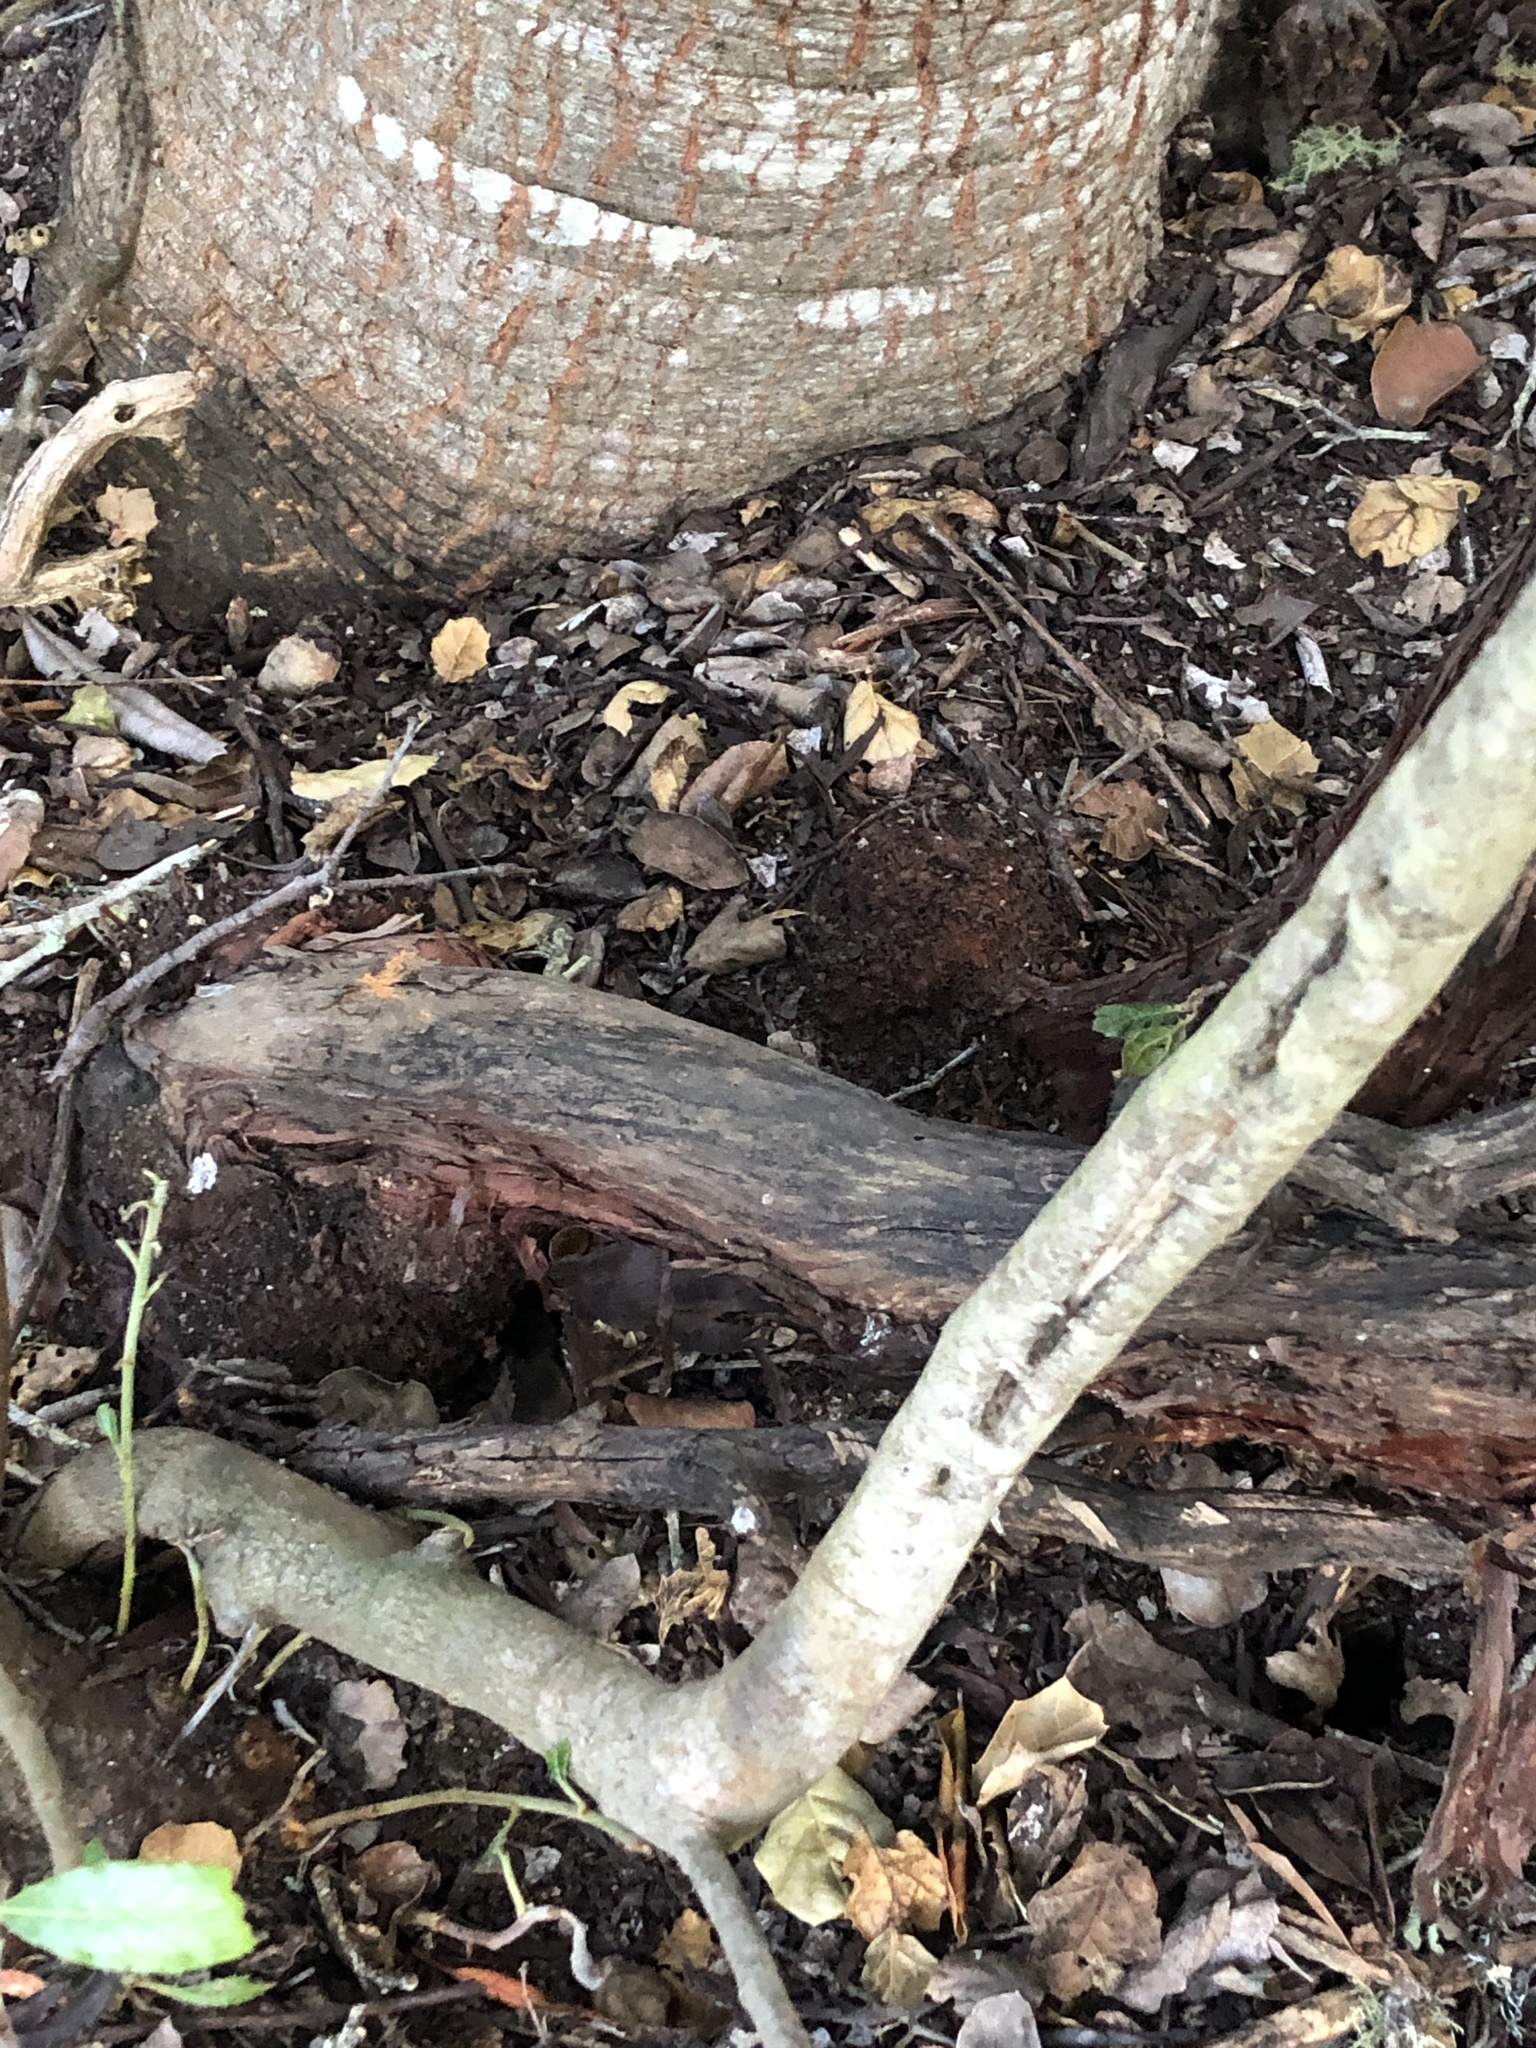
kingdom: Plantae
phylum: Tracheophyta
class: Magnoliopsida
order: Ericales
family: Ericaceae
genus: Arctostaphylos
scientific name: Arctostaphylos tomentosa
